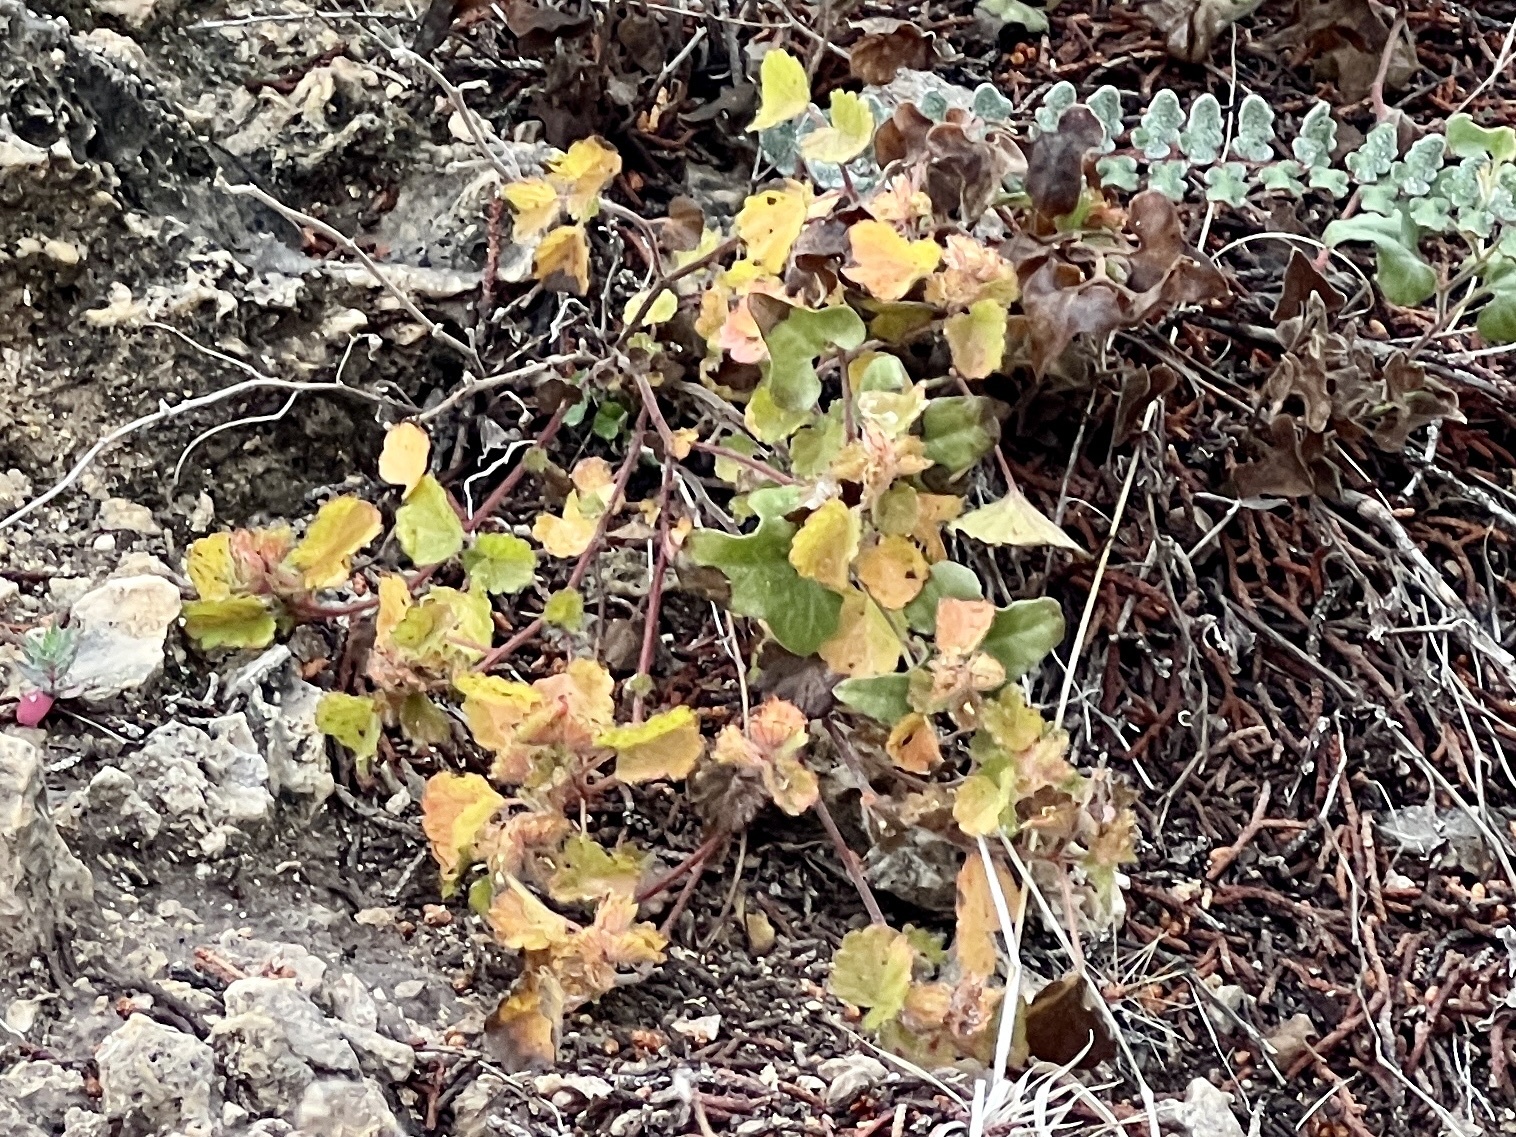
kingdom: Plantae
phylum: Tracheophyta
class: Magnoliopsida
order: Asterales
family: Asteraceae
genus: Xanthium
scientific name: Xanthium strumarium
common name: Rough cocklebur
